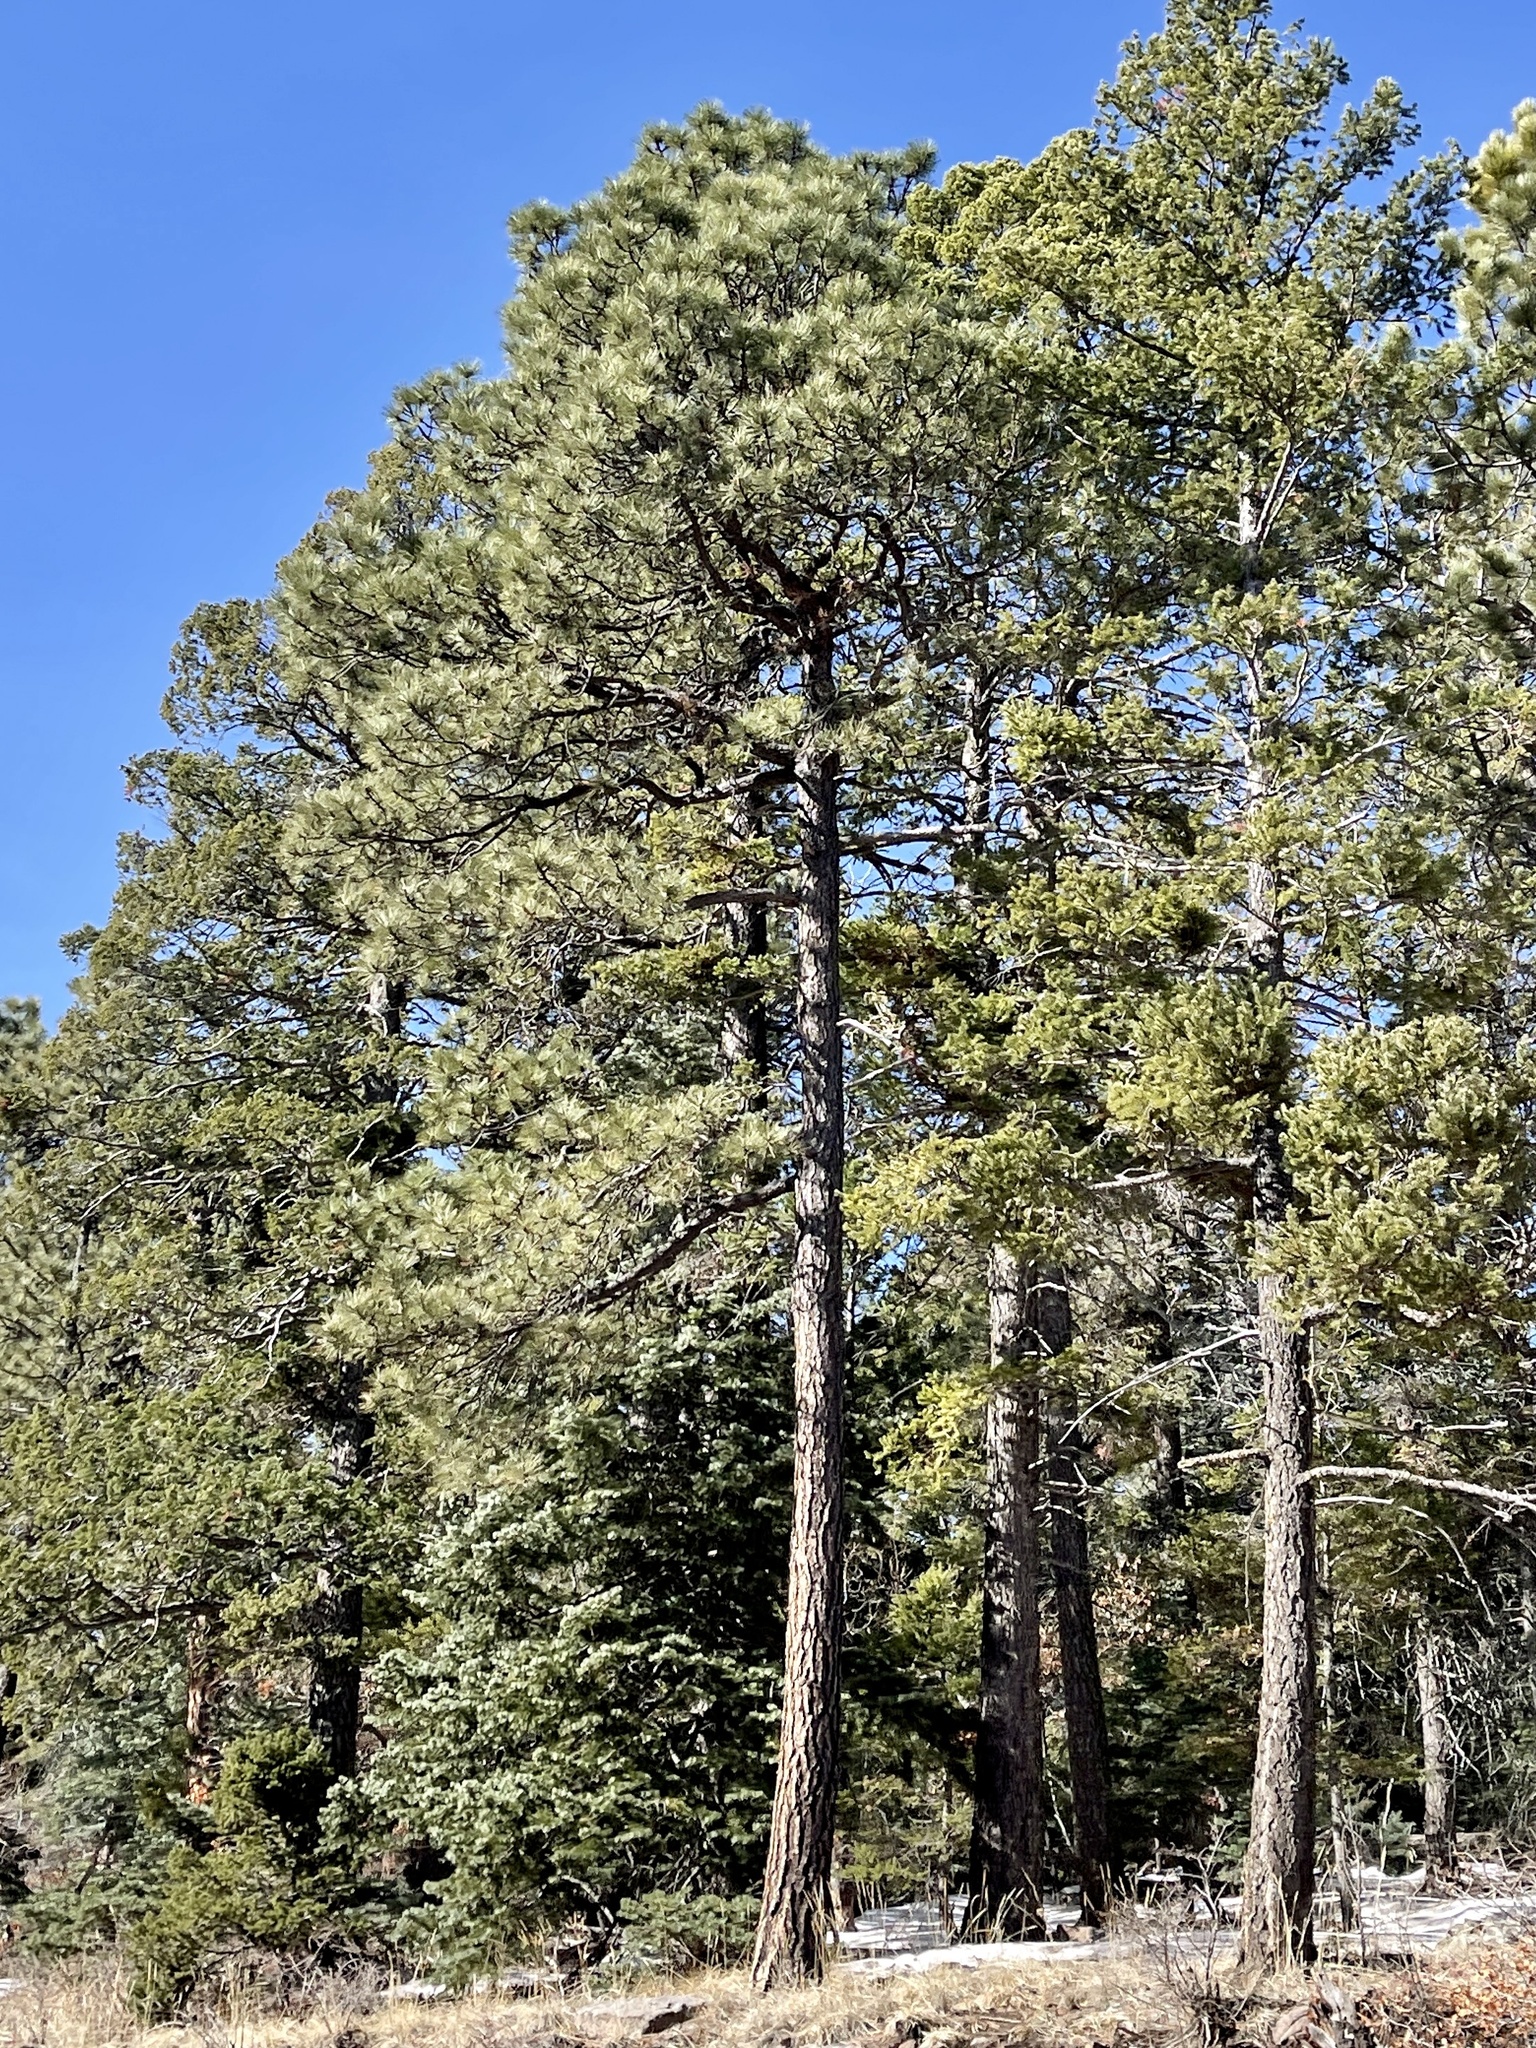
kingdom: Plantae
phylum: Tracheophyta
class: Pinopsida
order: Pinales
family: Pinaceae
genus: Pinus
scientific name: Pinus ponderosa
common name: Western yellow-pine
